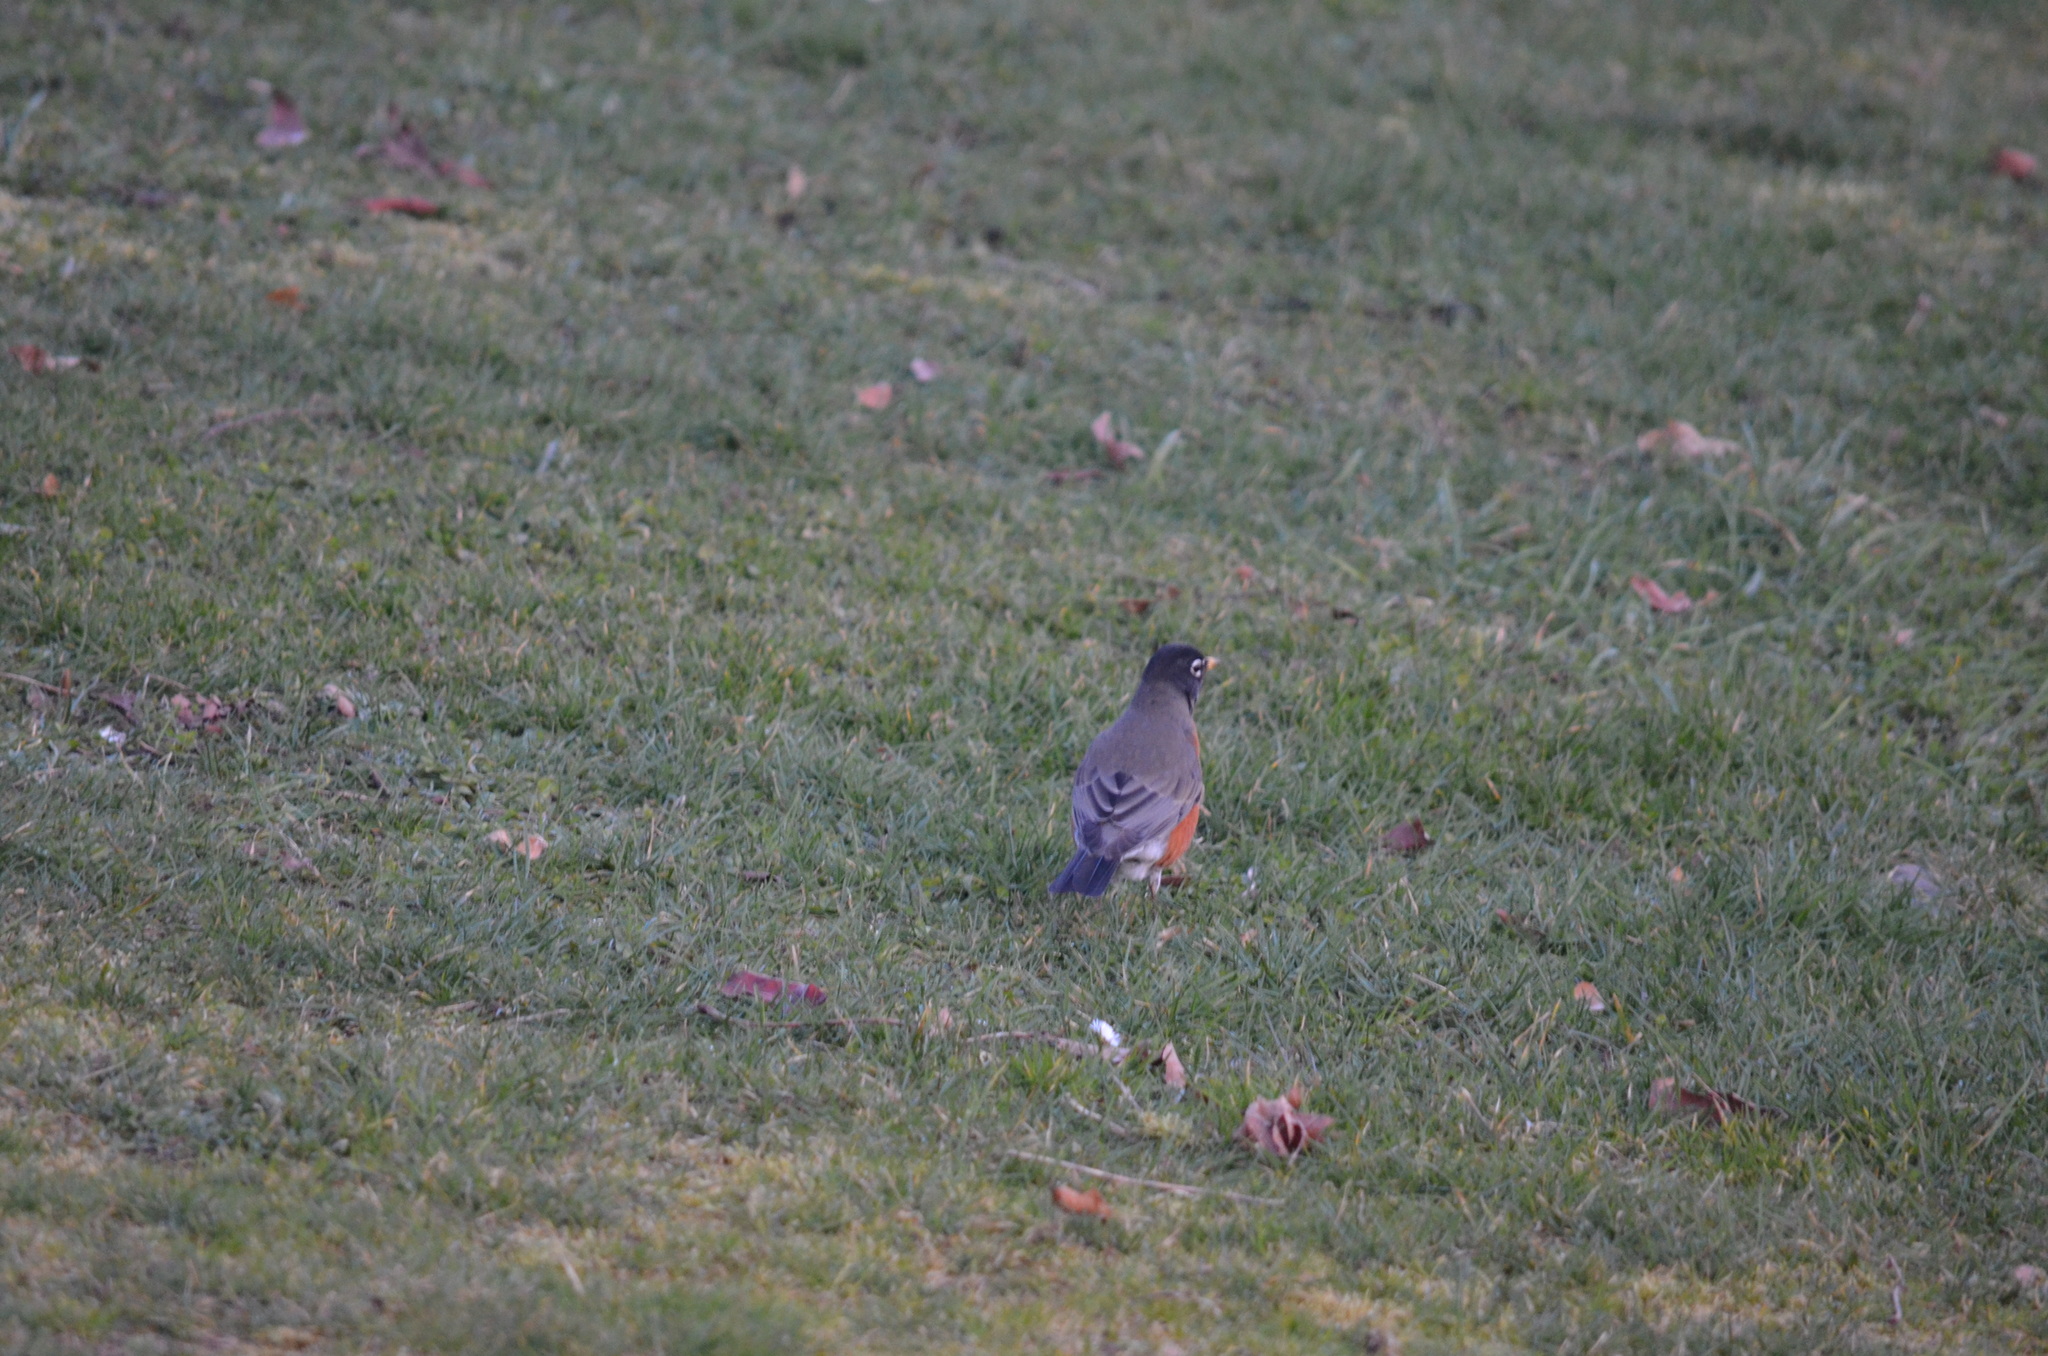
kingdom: Animalia
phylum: Chordata
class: Aves
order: Passeriformes
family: Turdidae
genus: Turdus
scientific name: Turdus migratorius
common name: American robin
